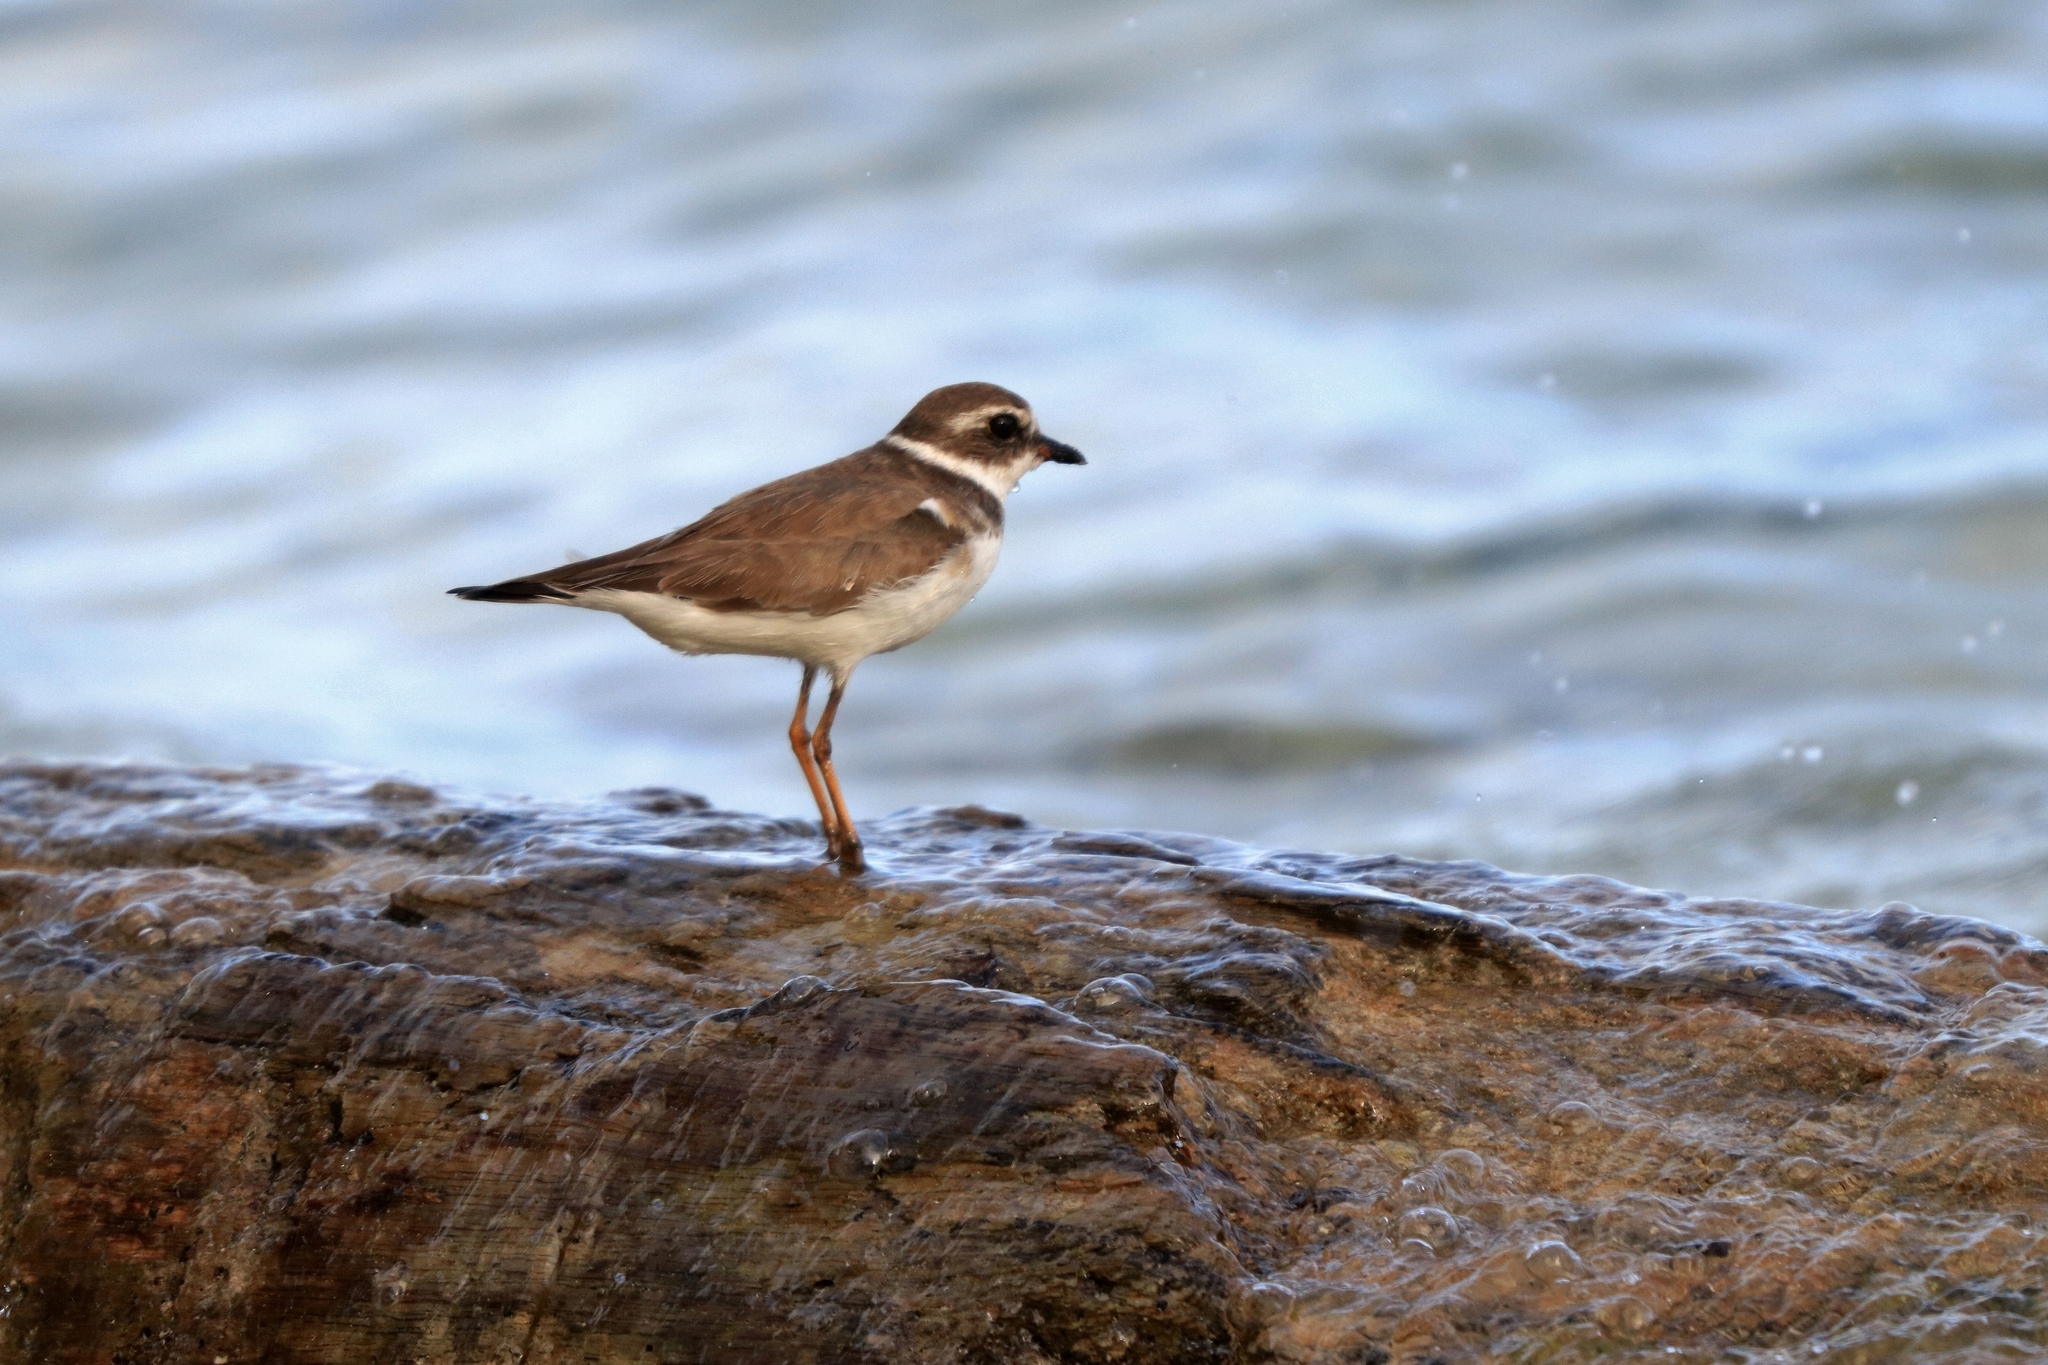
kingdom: Animalia
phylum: Chordata
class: Aves
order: Charadriiformes
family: Charadriidae
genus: Charadrius
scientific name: Charadrius semipalmatus
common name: Semipalmated plover
